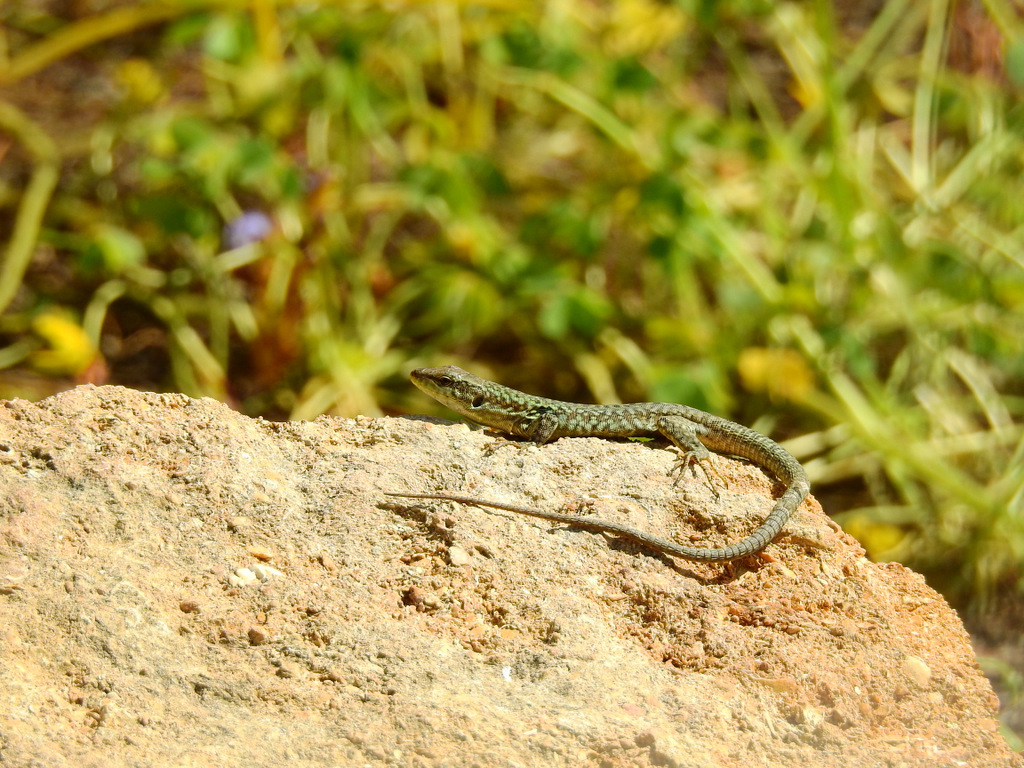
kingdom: Animalia
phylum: Chordata
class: Squamata
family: Lacertidae
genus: Podarcis
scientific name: Podarcis siculus
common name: Italian wall lizard
